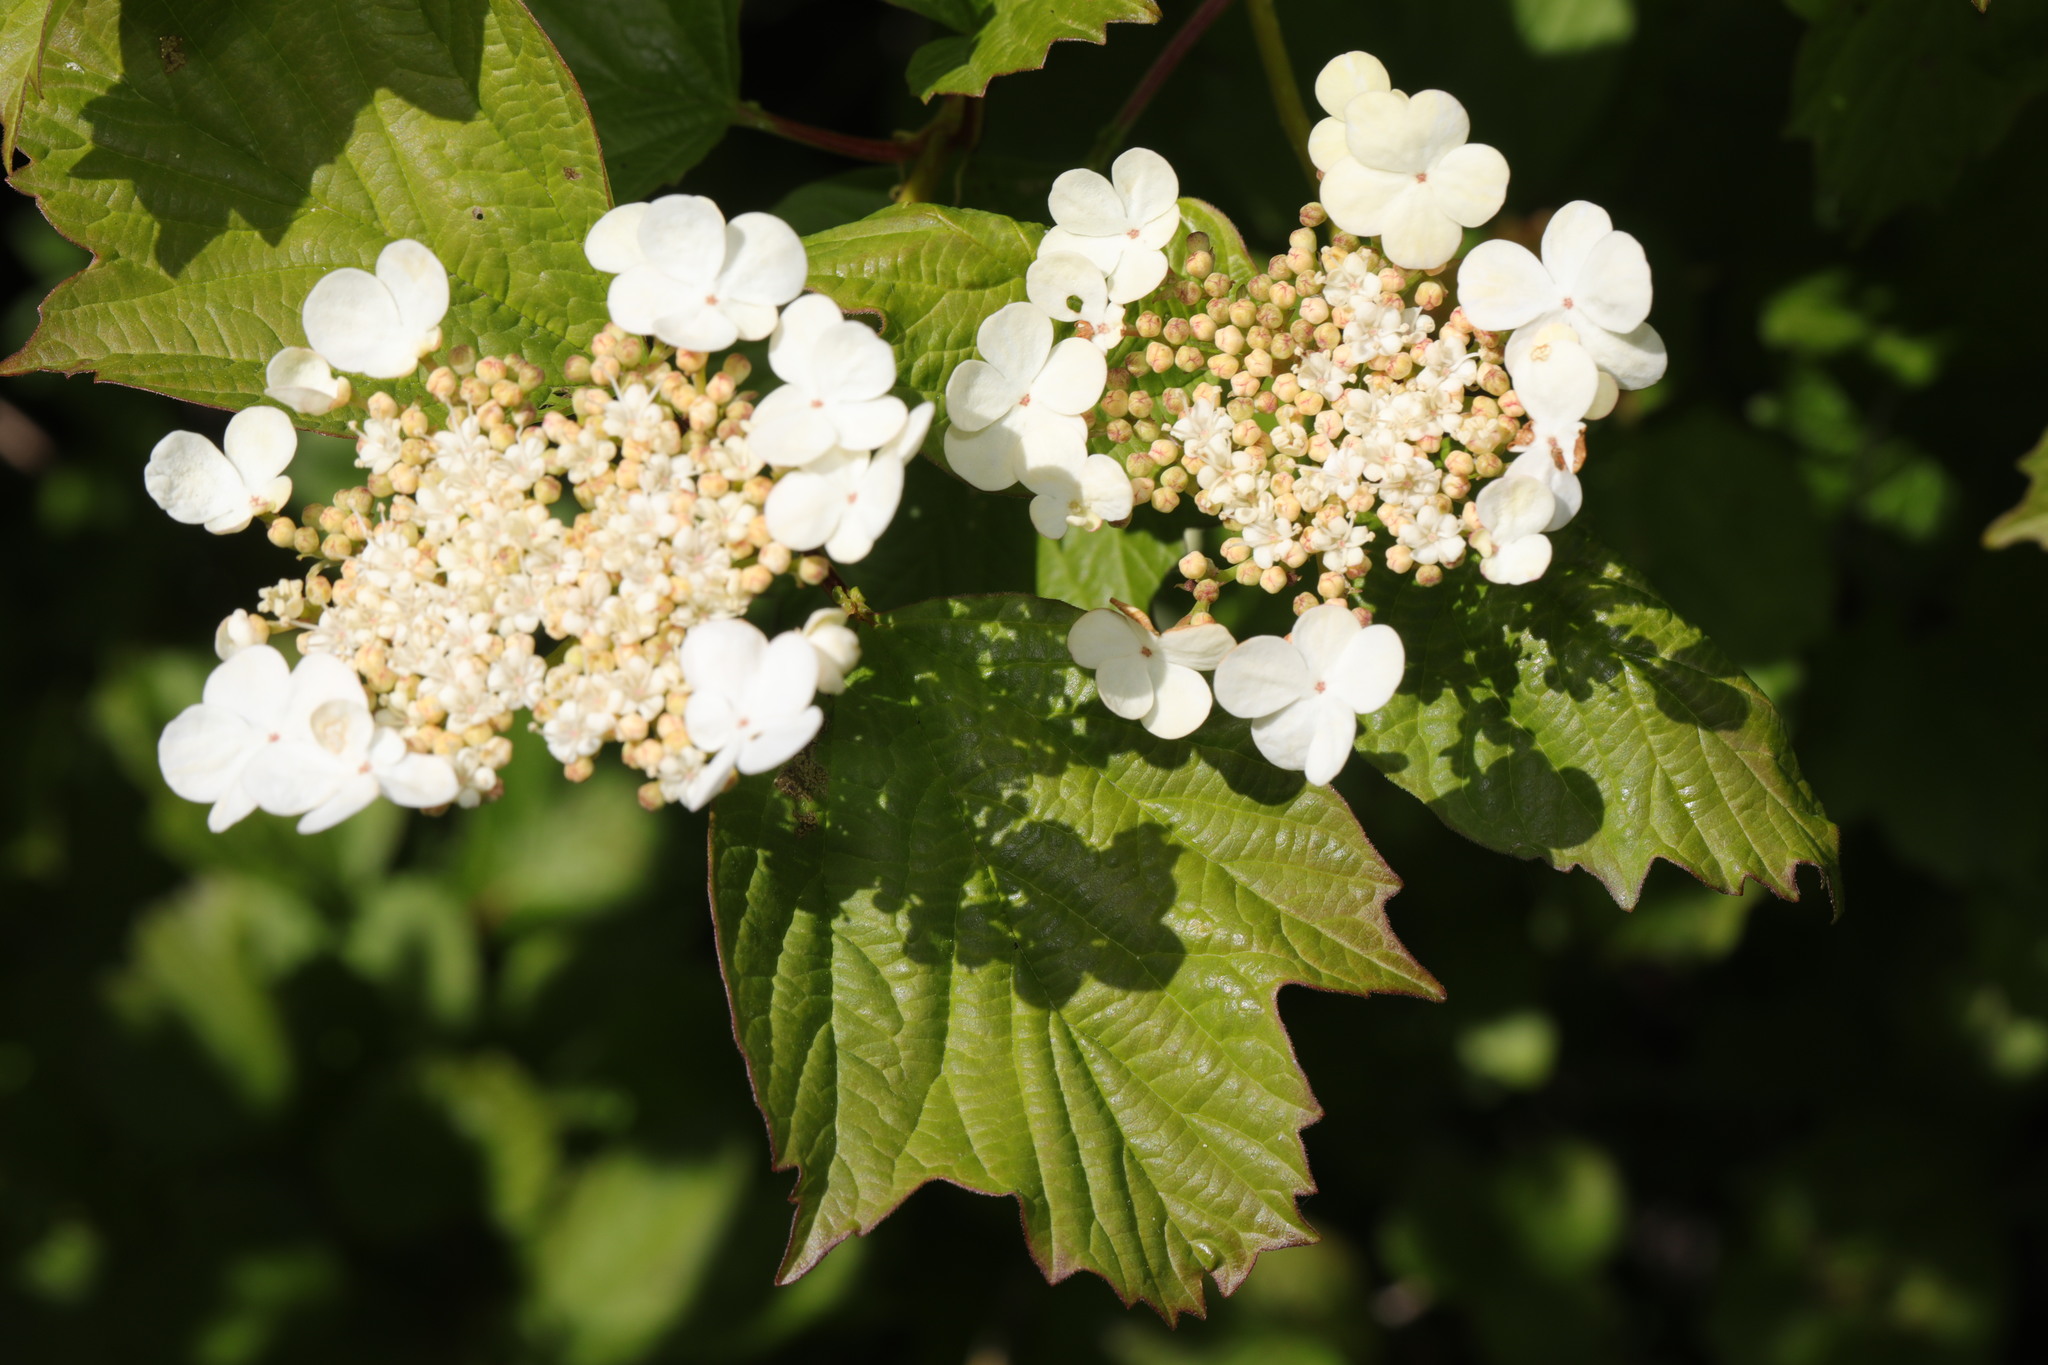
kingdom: Plantae
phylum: Tracheophyta
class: Magnoliopsida
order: Dipsacales
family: Viburnaceae
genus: Viburnum
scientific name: Viburnum opulus
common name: Guelder-rose
